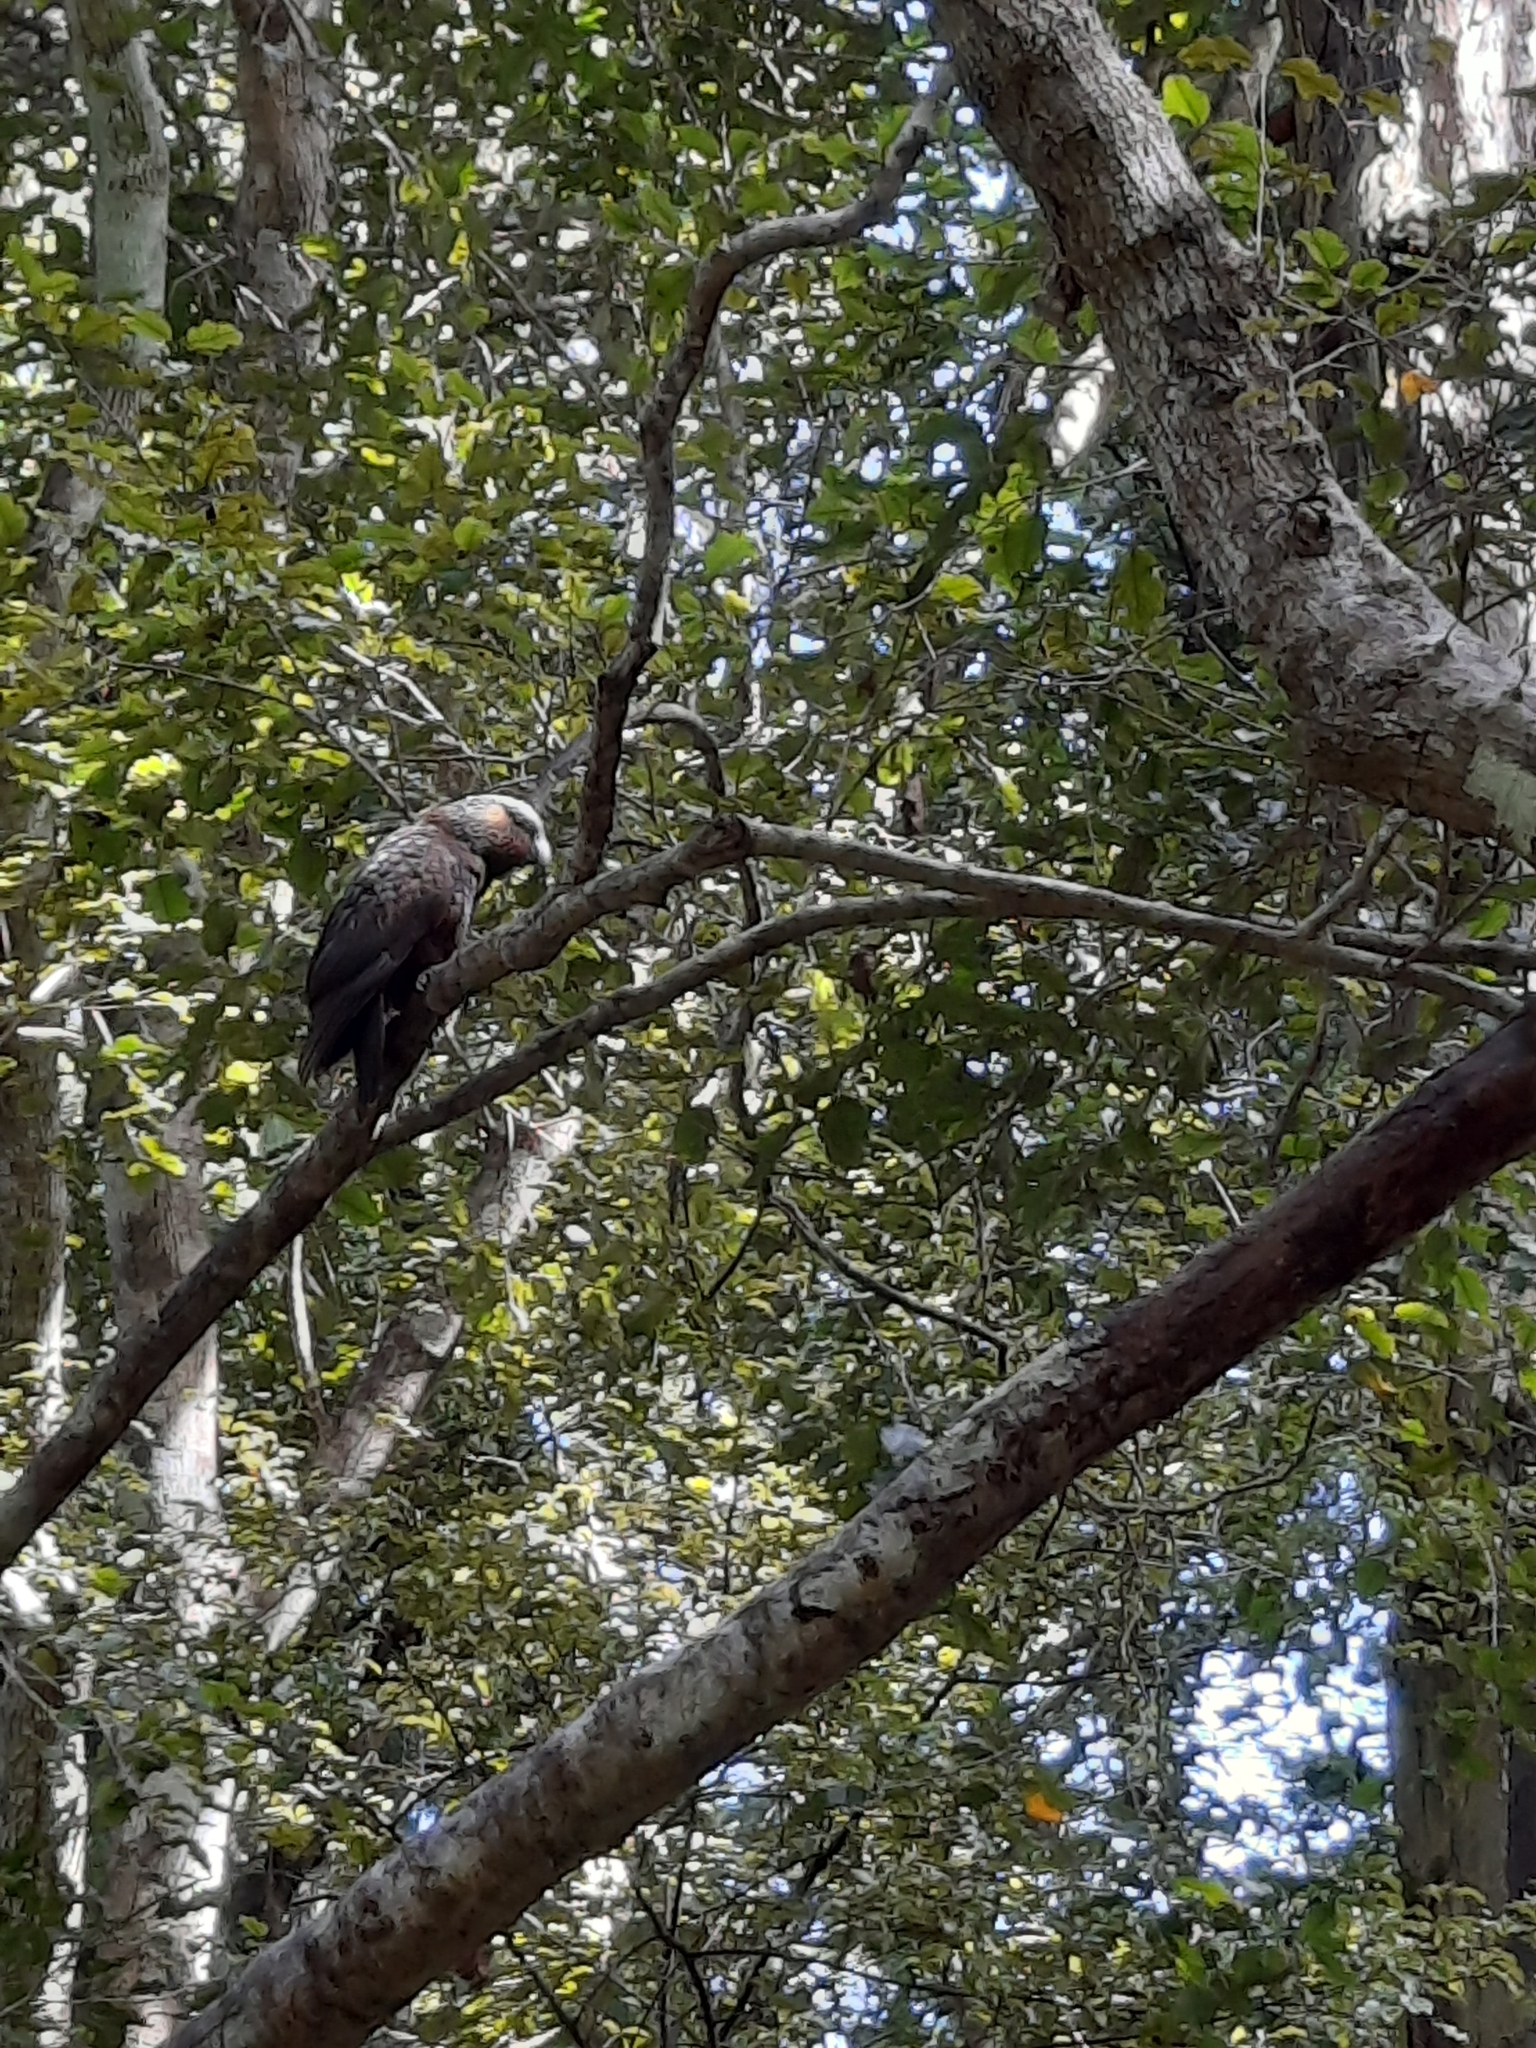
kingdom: Animalia
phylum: Chordata
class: Aves
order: Psittaciformes
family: Psittacidae
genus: Nestor
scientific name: Nestor meridionalis
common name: New zealand kaka
